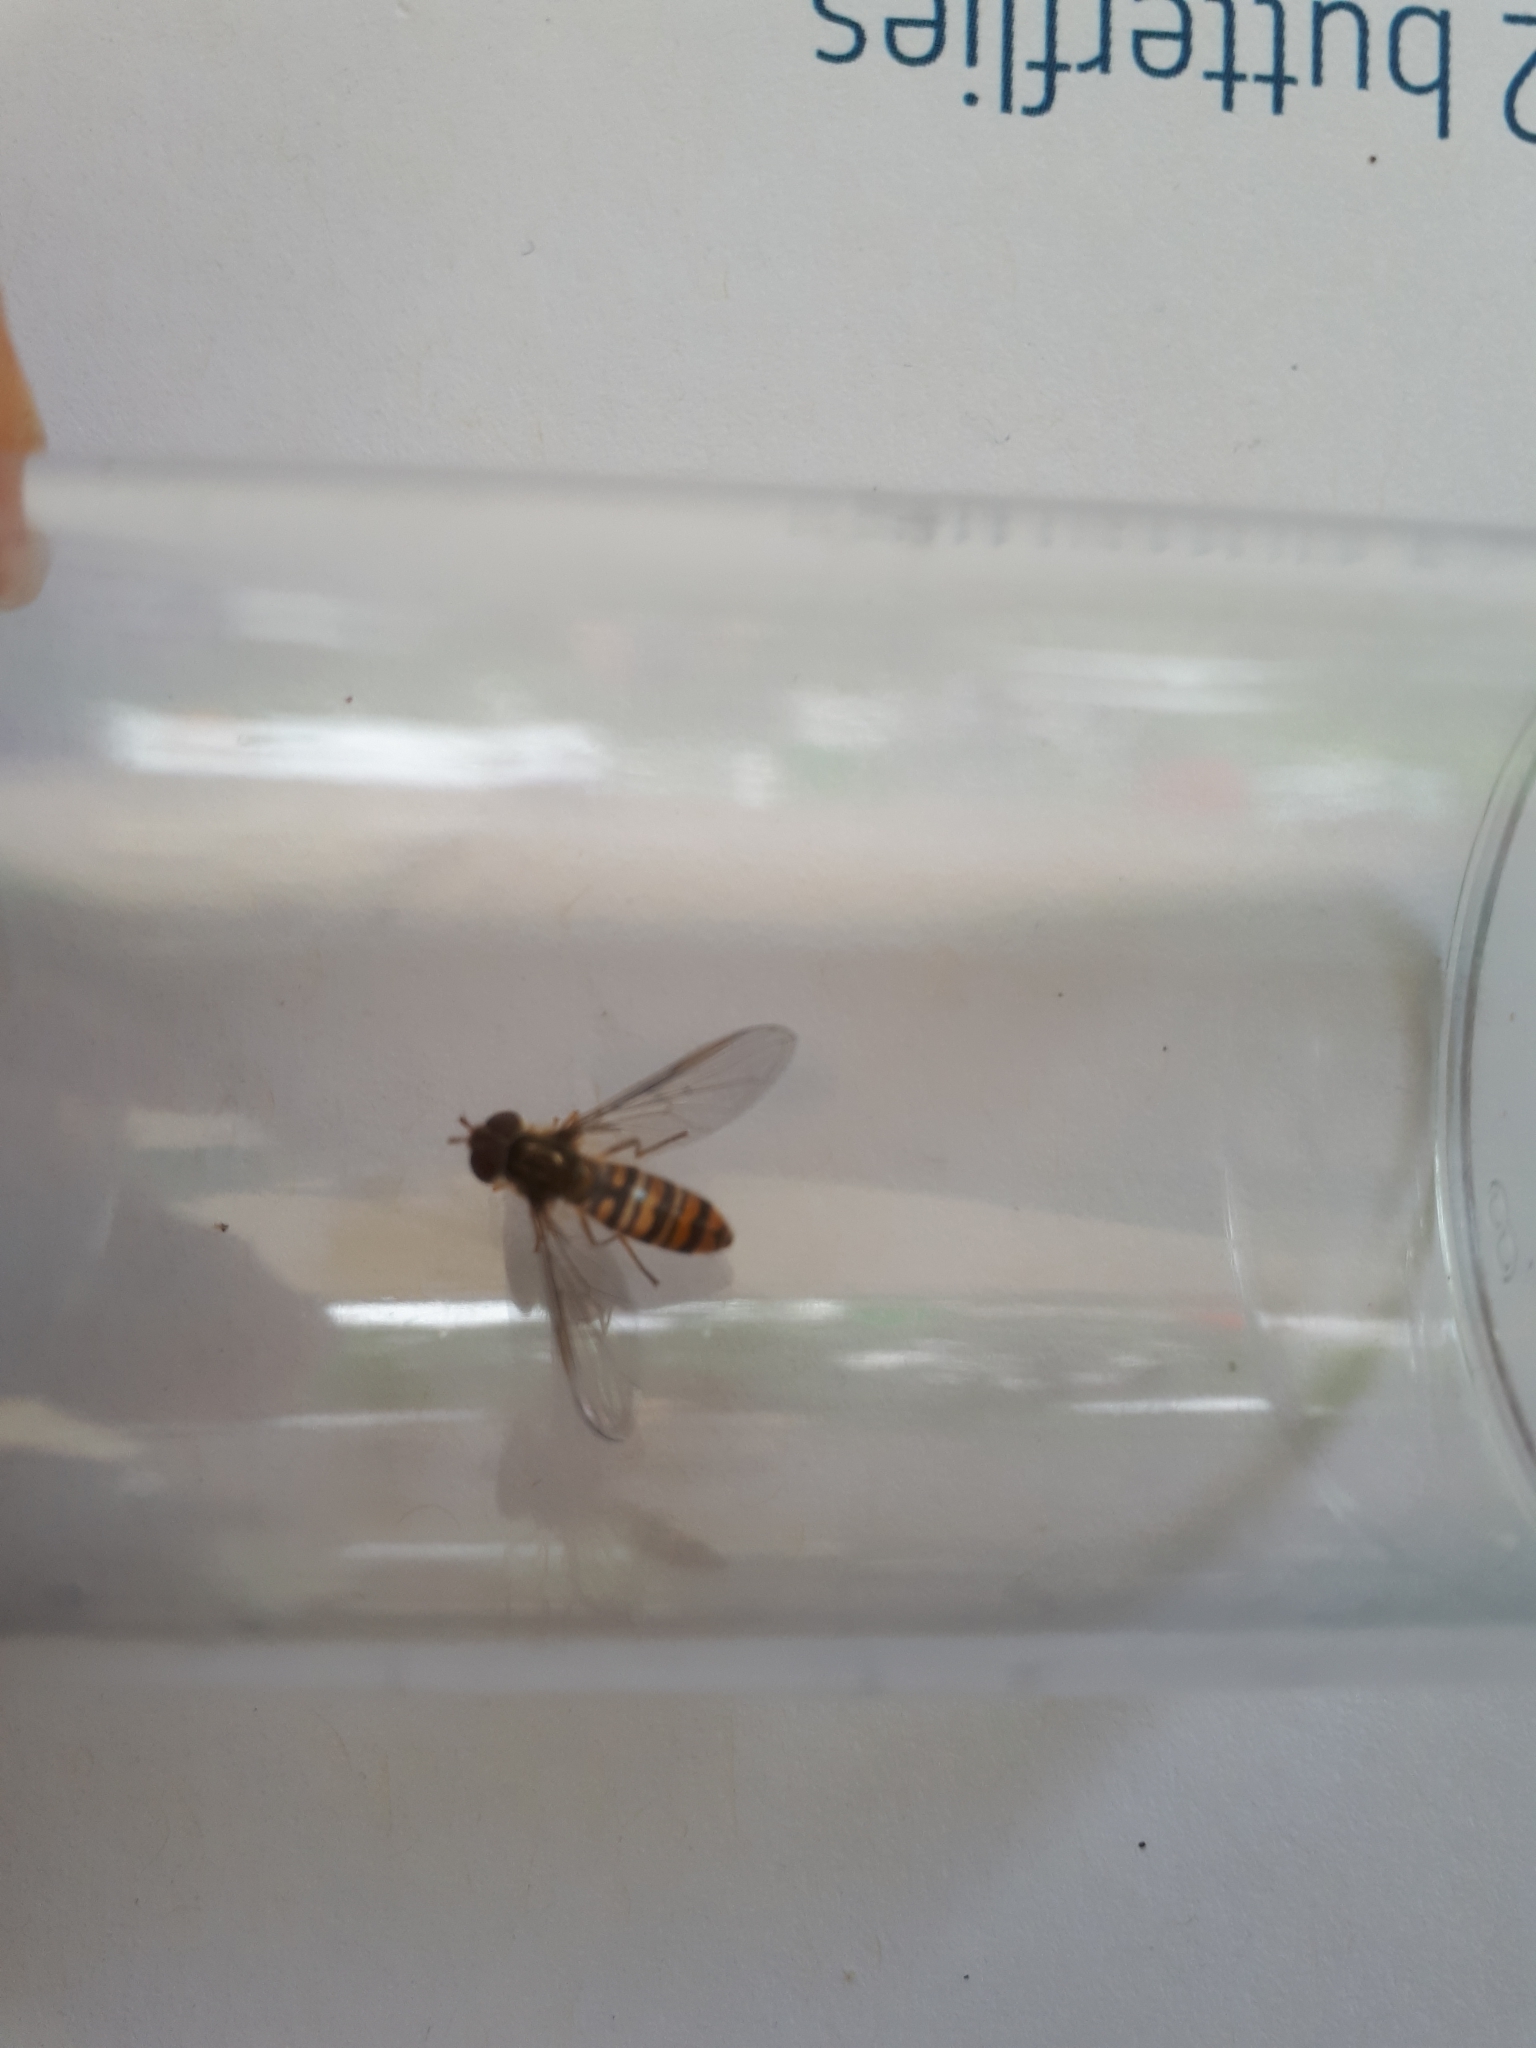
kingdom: Animalia
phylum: Arthropoda
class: Insecta
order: Diptera
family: Syrphidae
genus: Episyrphus
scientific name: Episyrphus balteatus
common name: Marmalade hoverfly
